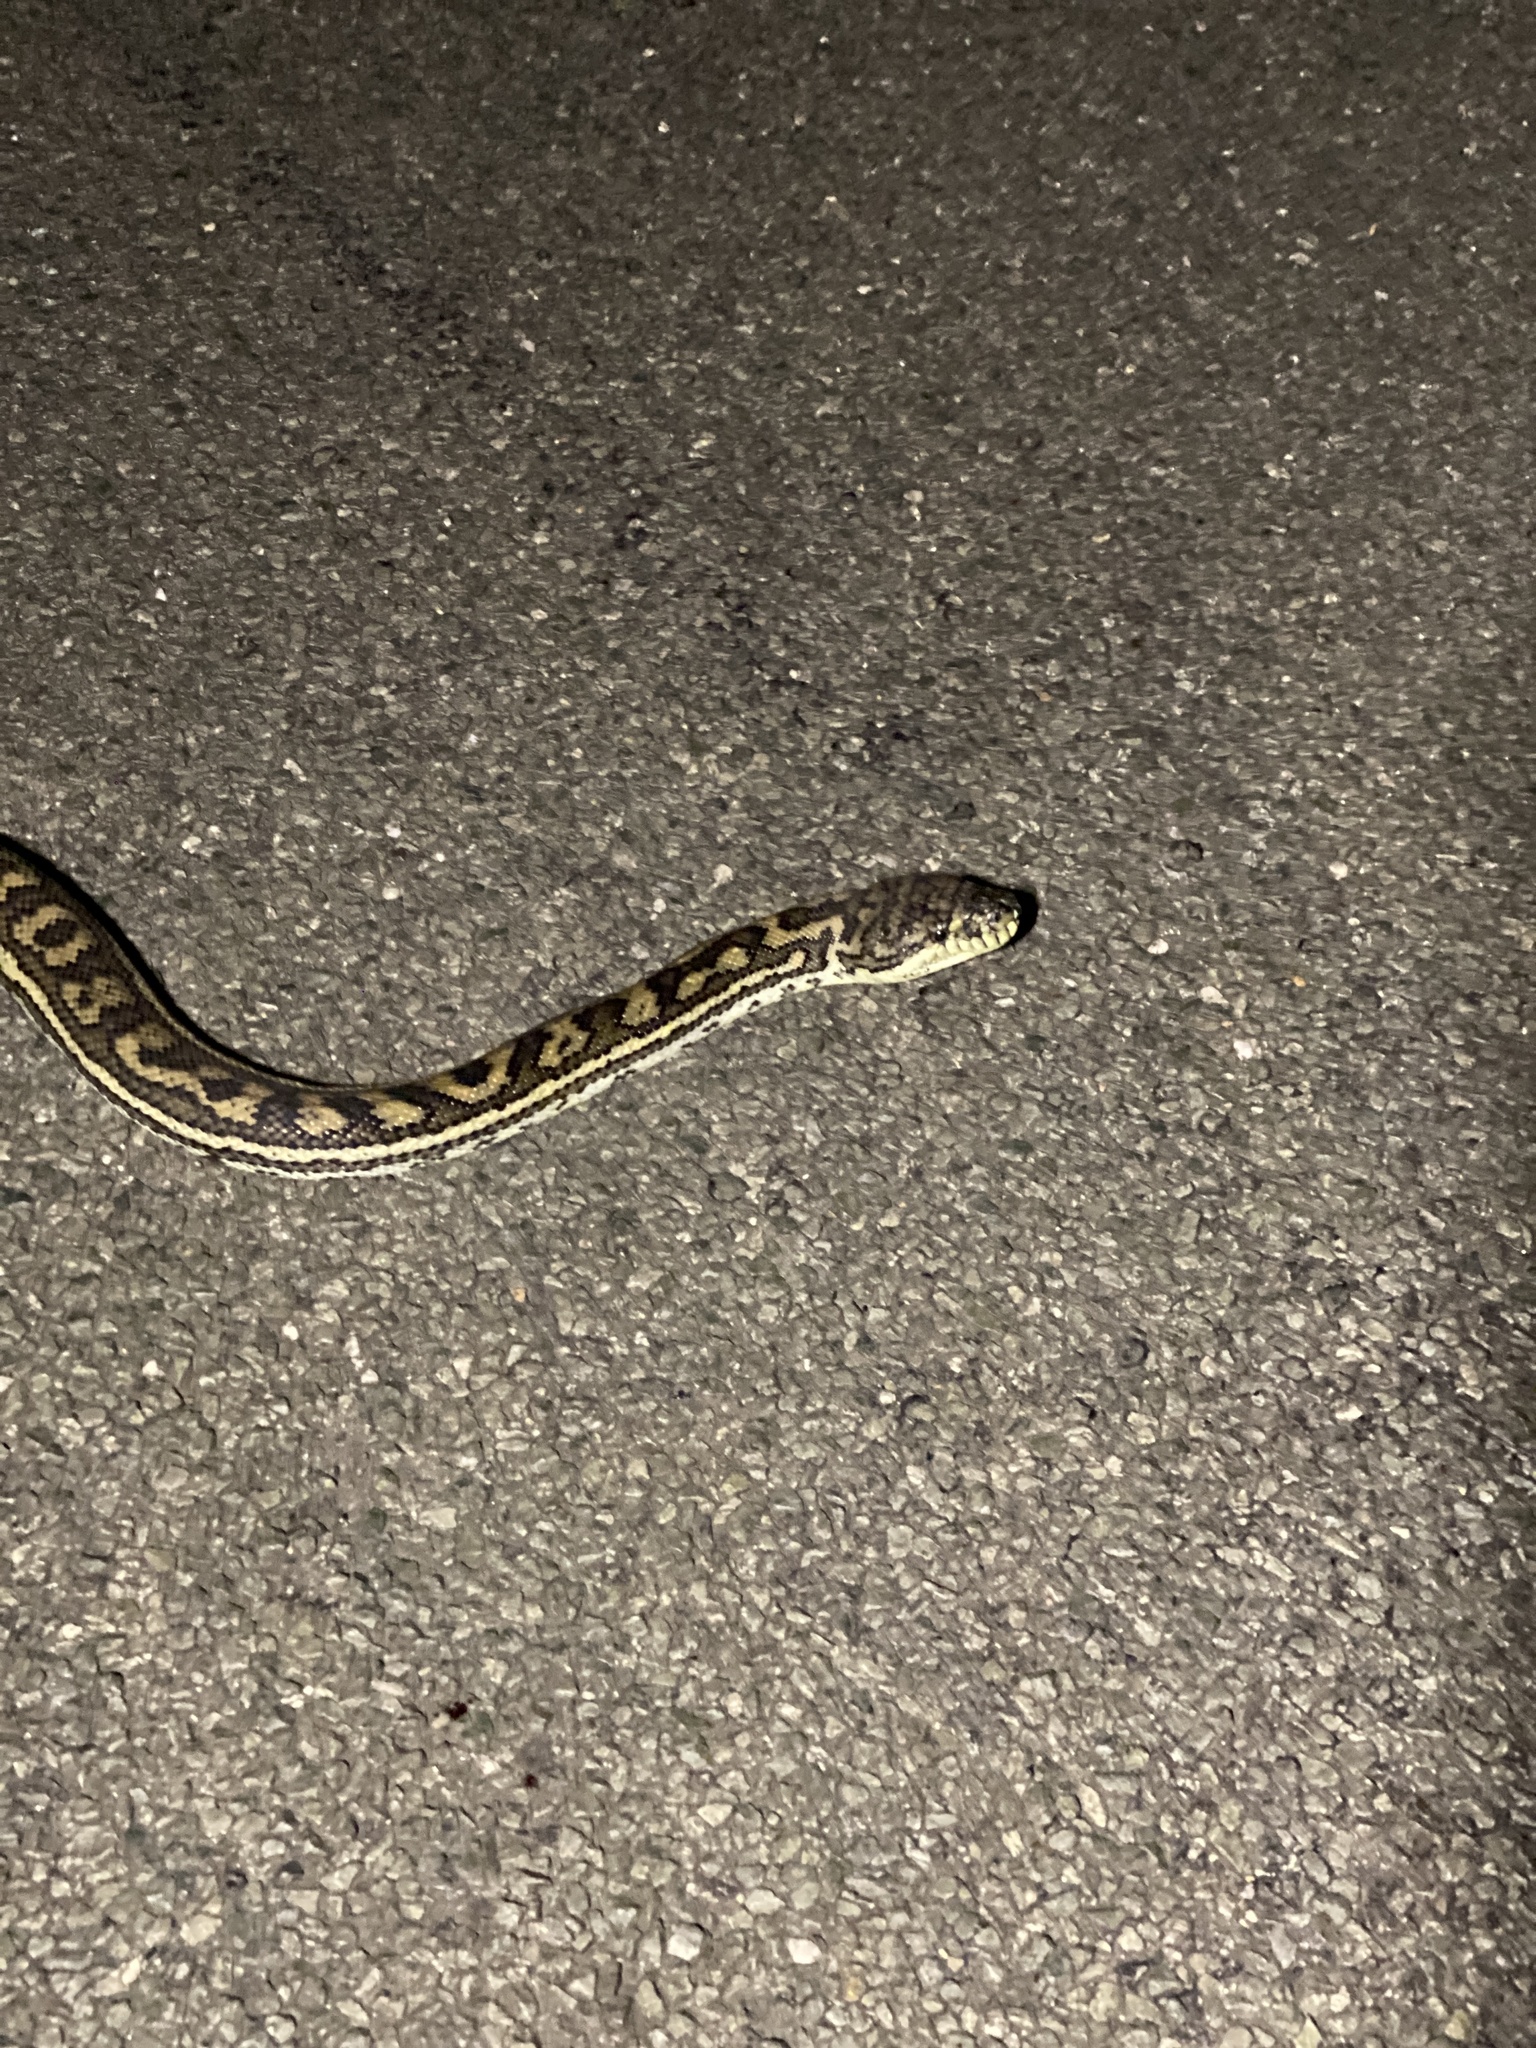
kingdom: Animalia
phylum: Chordata
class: Squamata
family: Pythonidae
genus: Morelia
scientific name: Morelia spilota
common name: Carpet python
